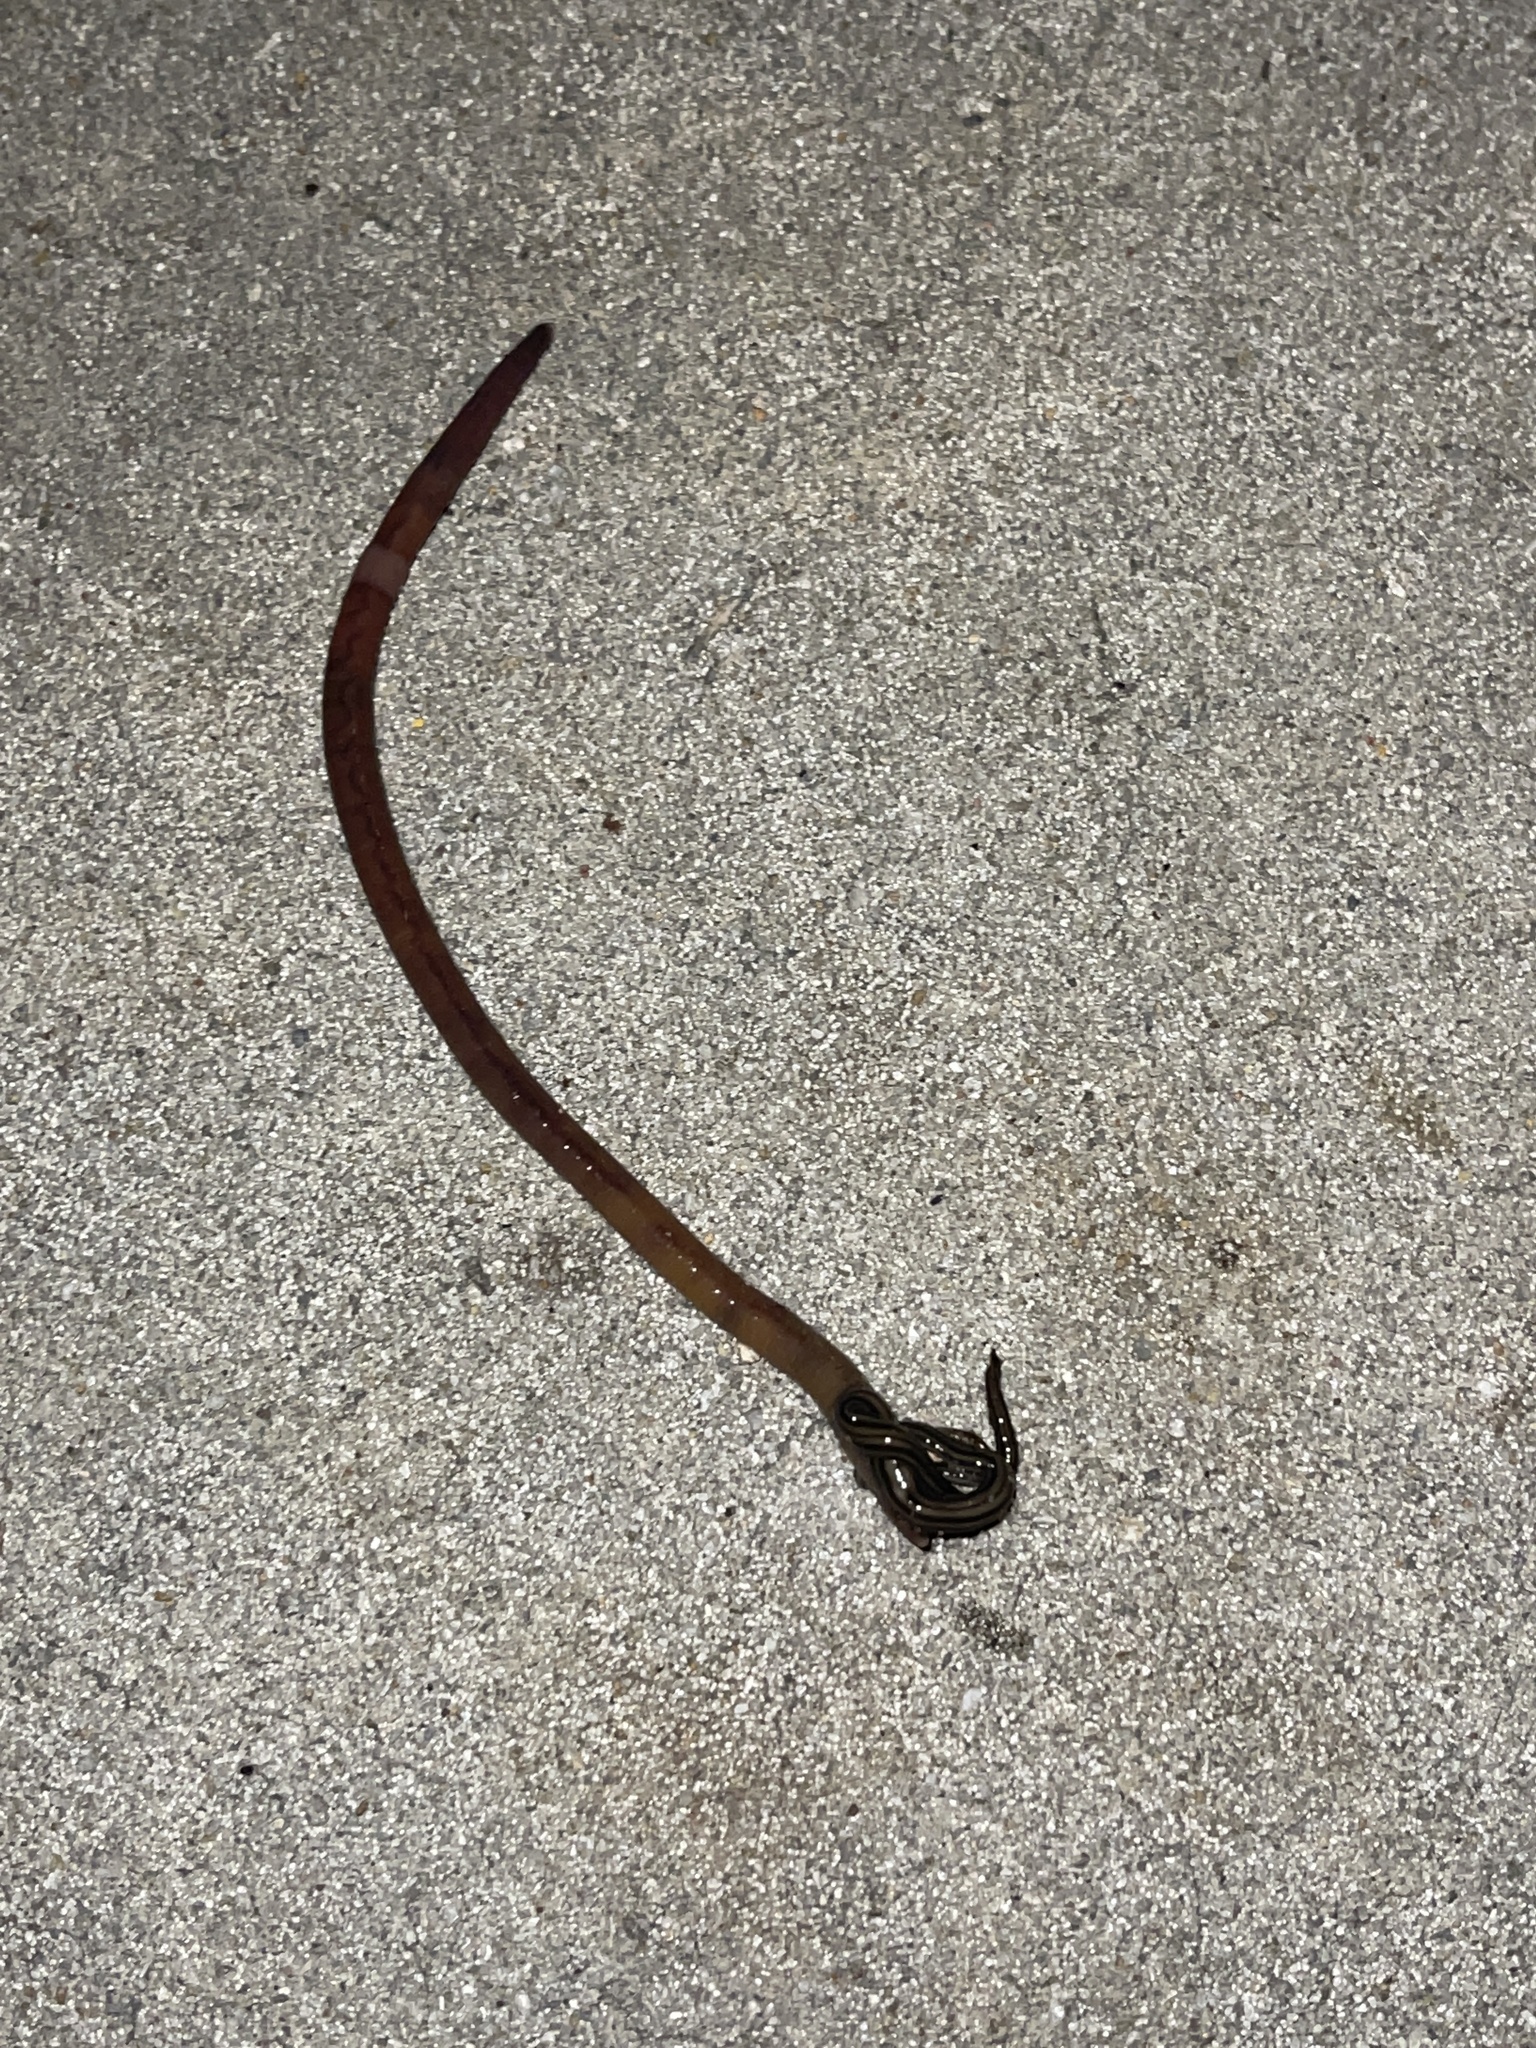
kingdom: Animalia
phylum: Annelida
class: Clitellata
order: Crassiclitellata
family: Lumbricidae
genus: Lumbricus
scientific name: Lumbricus terrestris
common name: Common earthworm
